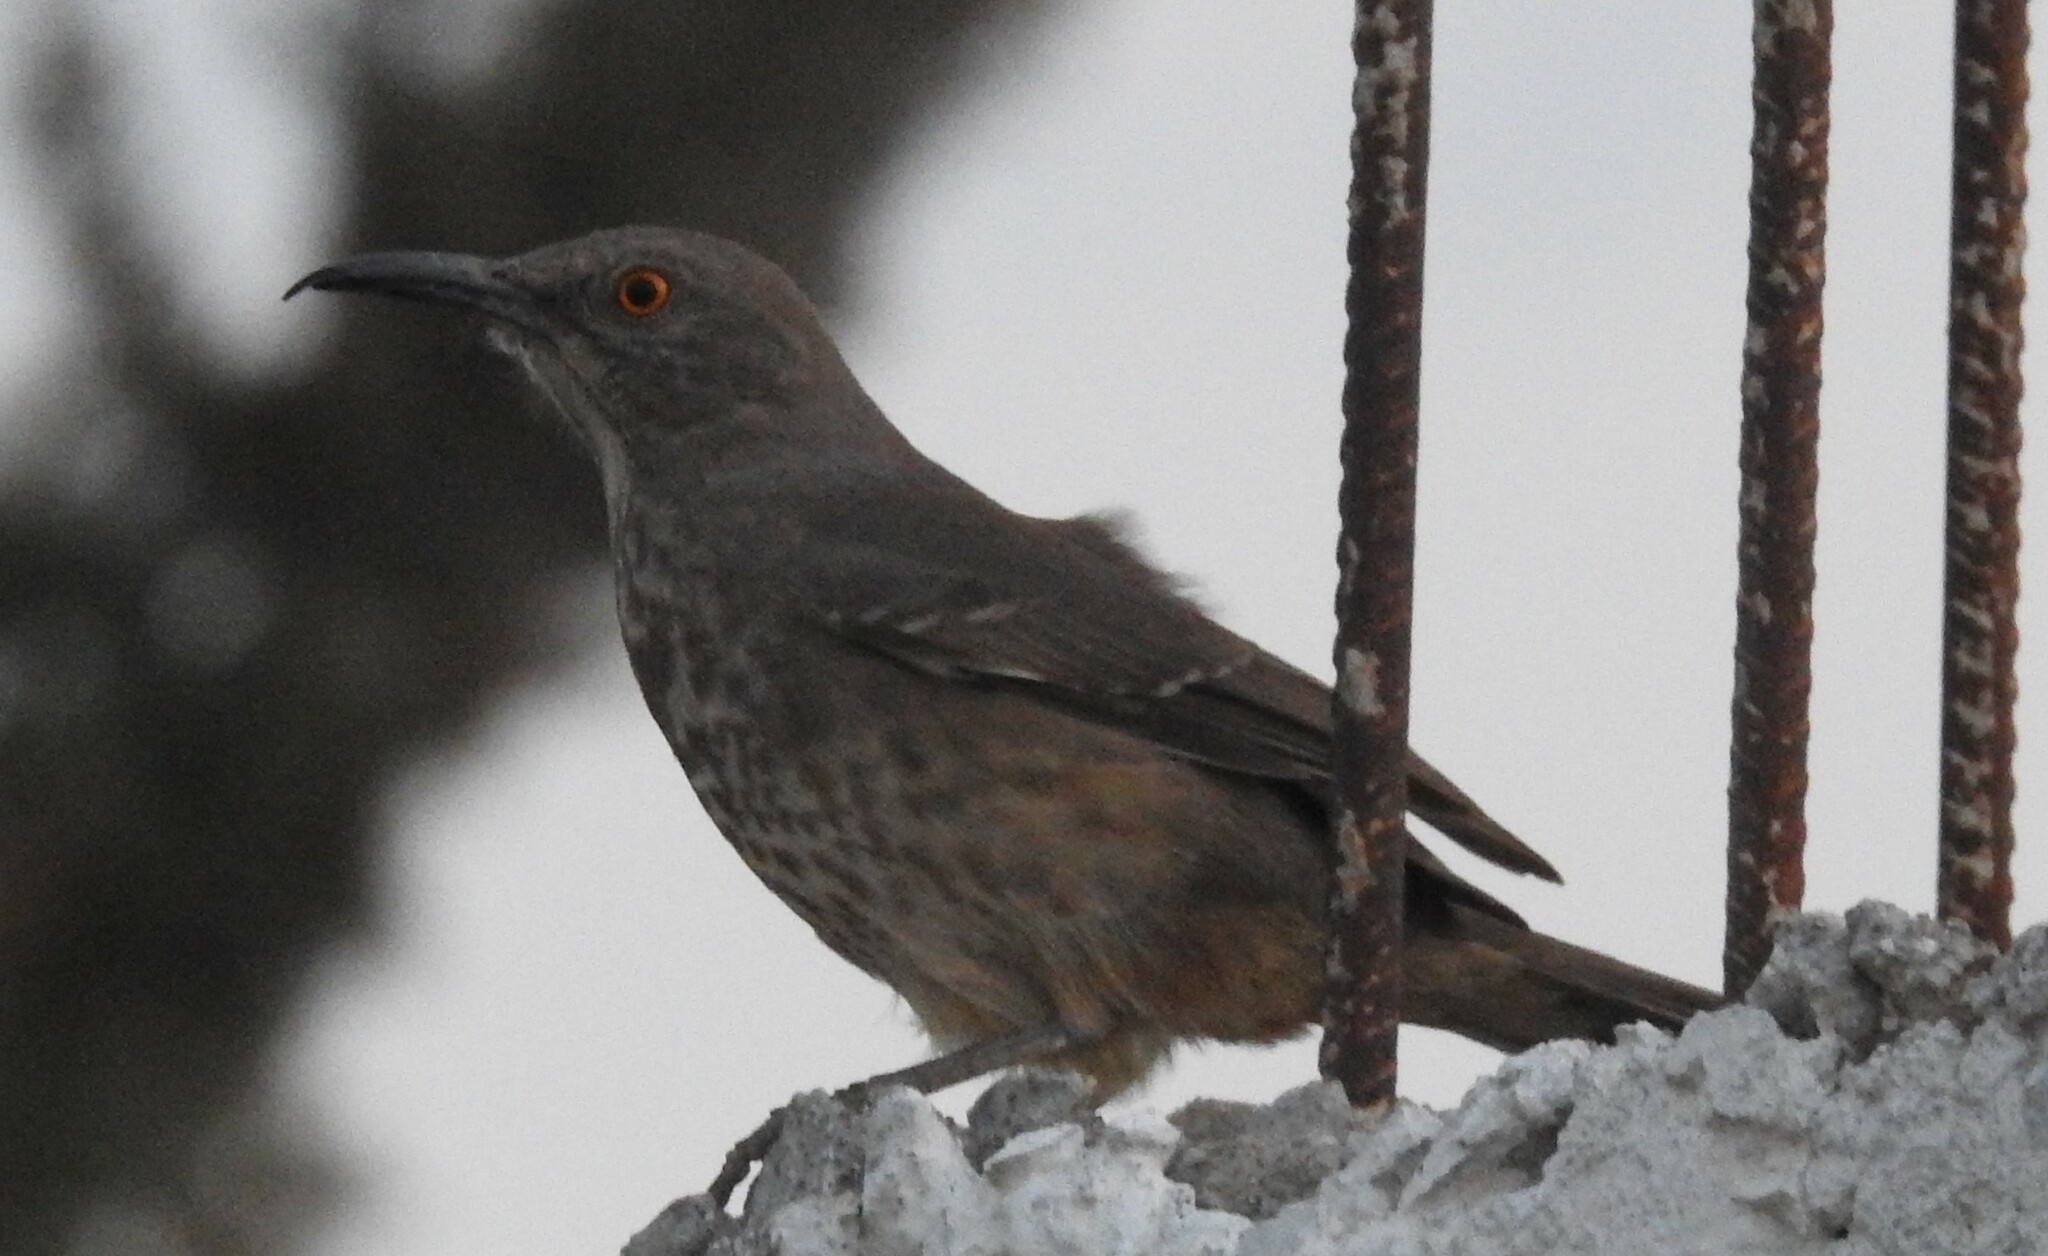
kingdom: Animalia
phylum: Chordata
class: Aves
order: Passeriformes
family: Mimidae
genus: Toxostoma
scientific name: Toxostoma curvirostre
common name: Curve-billed thrasher
